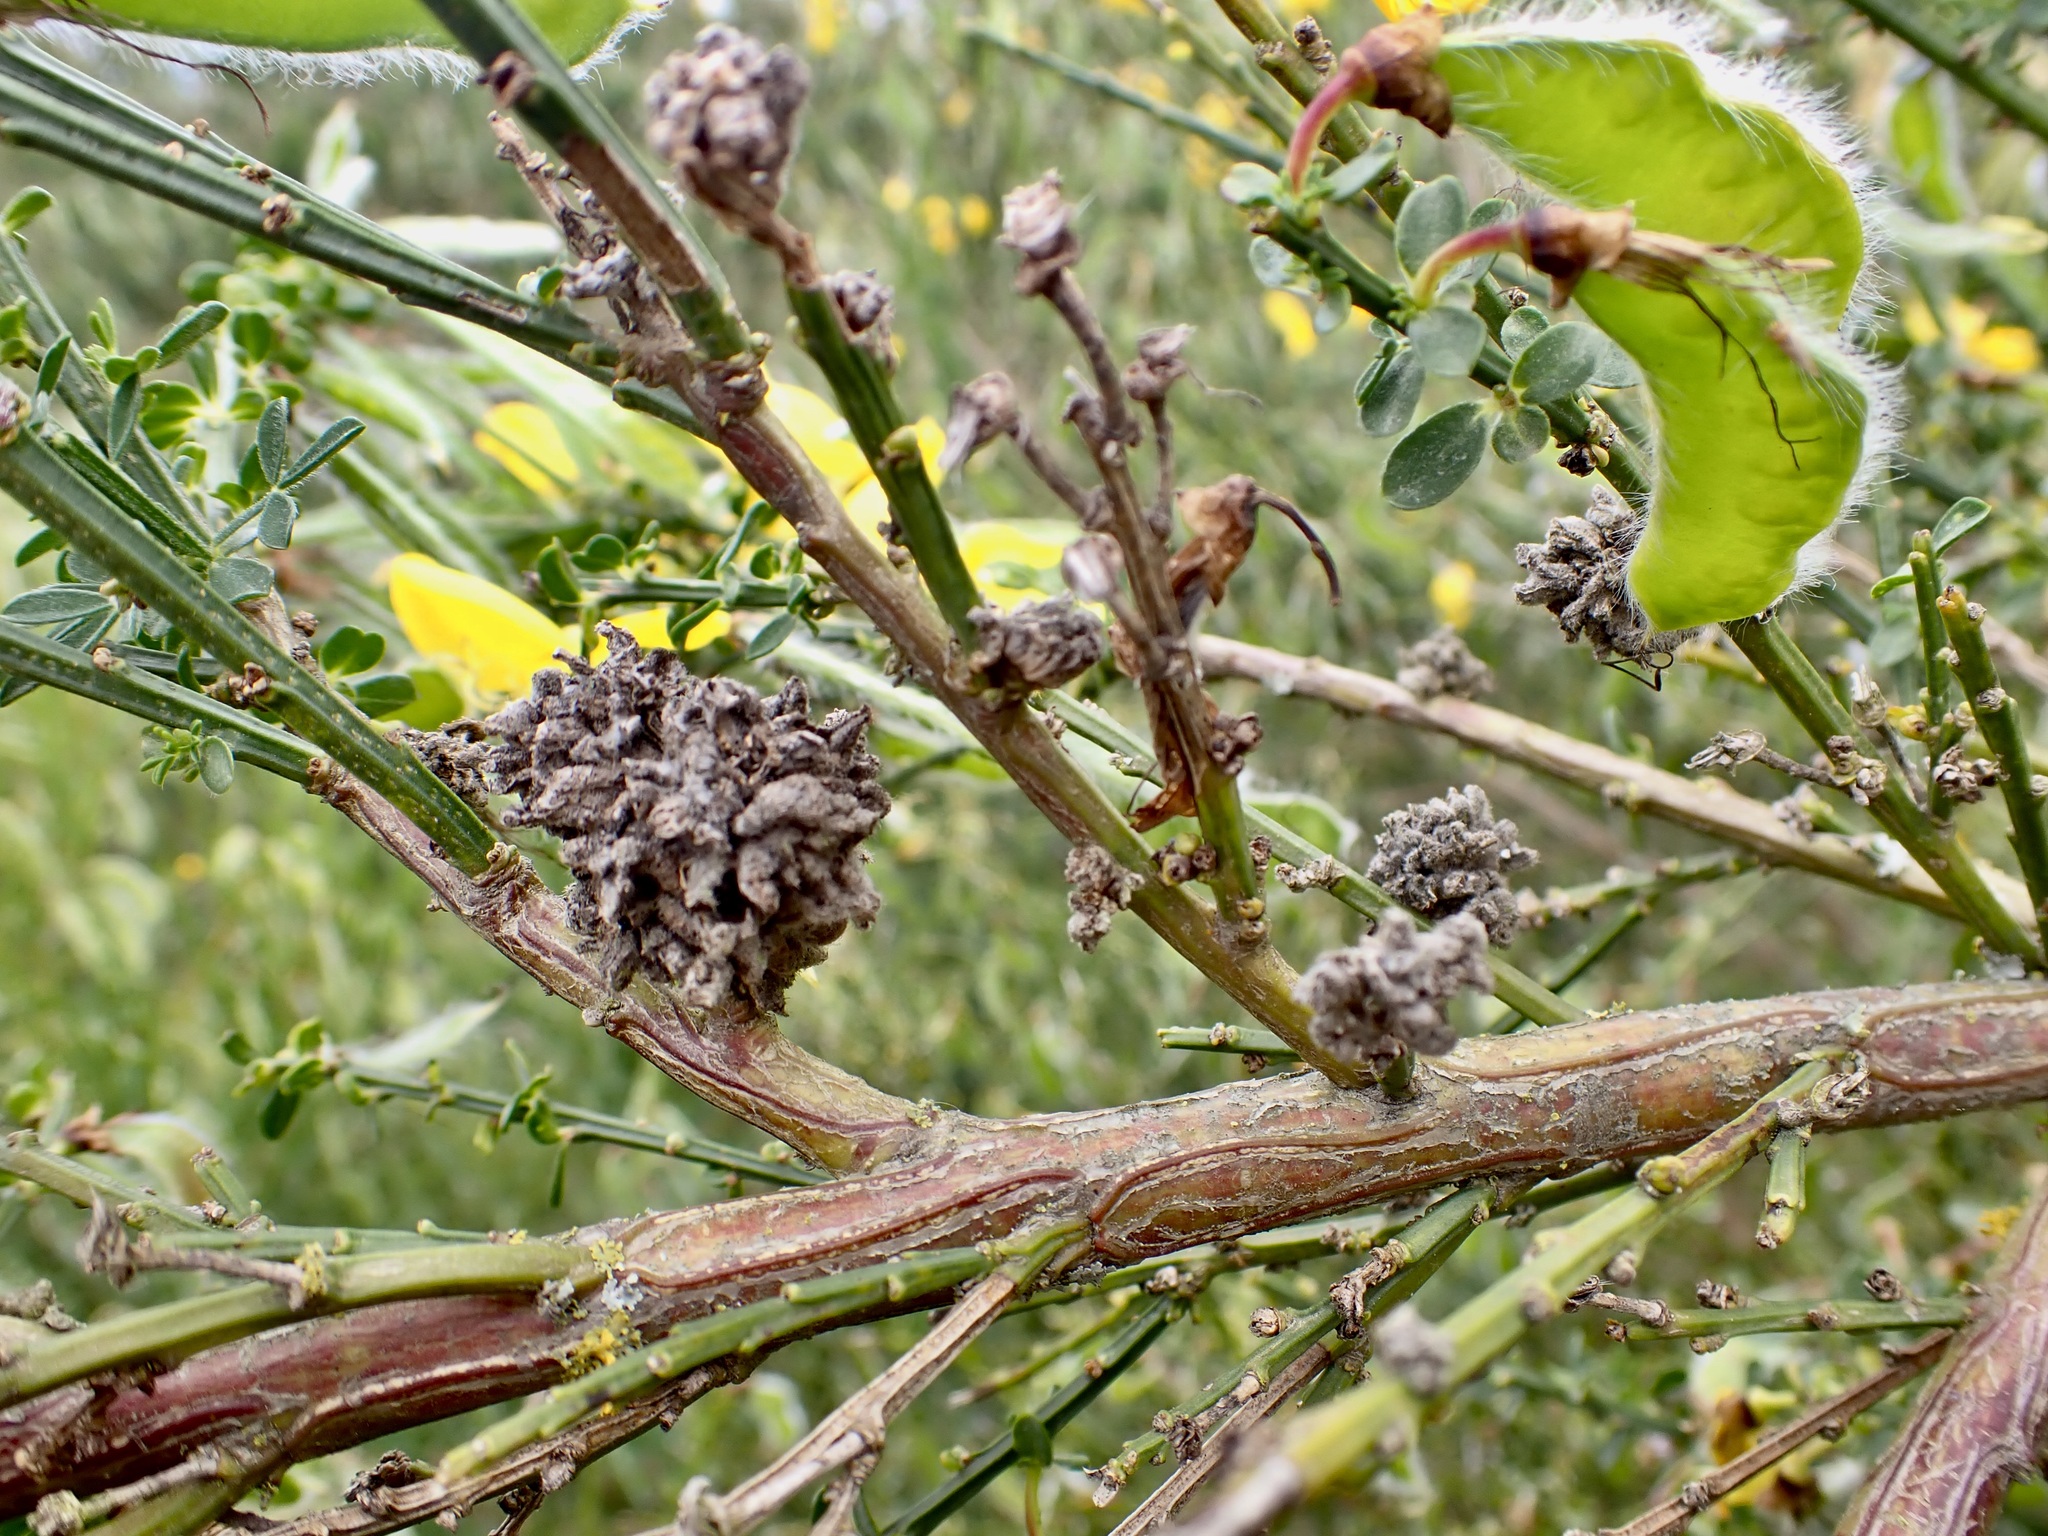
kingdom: Animalia
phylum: Arthropoda
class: Arachnida
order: Trombidiformes
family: Eriophyidae
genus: Aceria
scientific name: Aceria genistae
